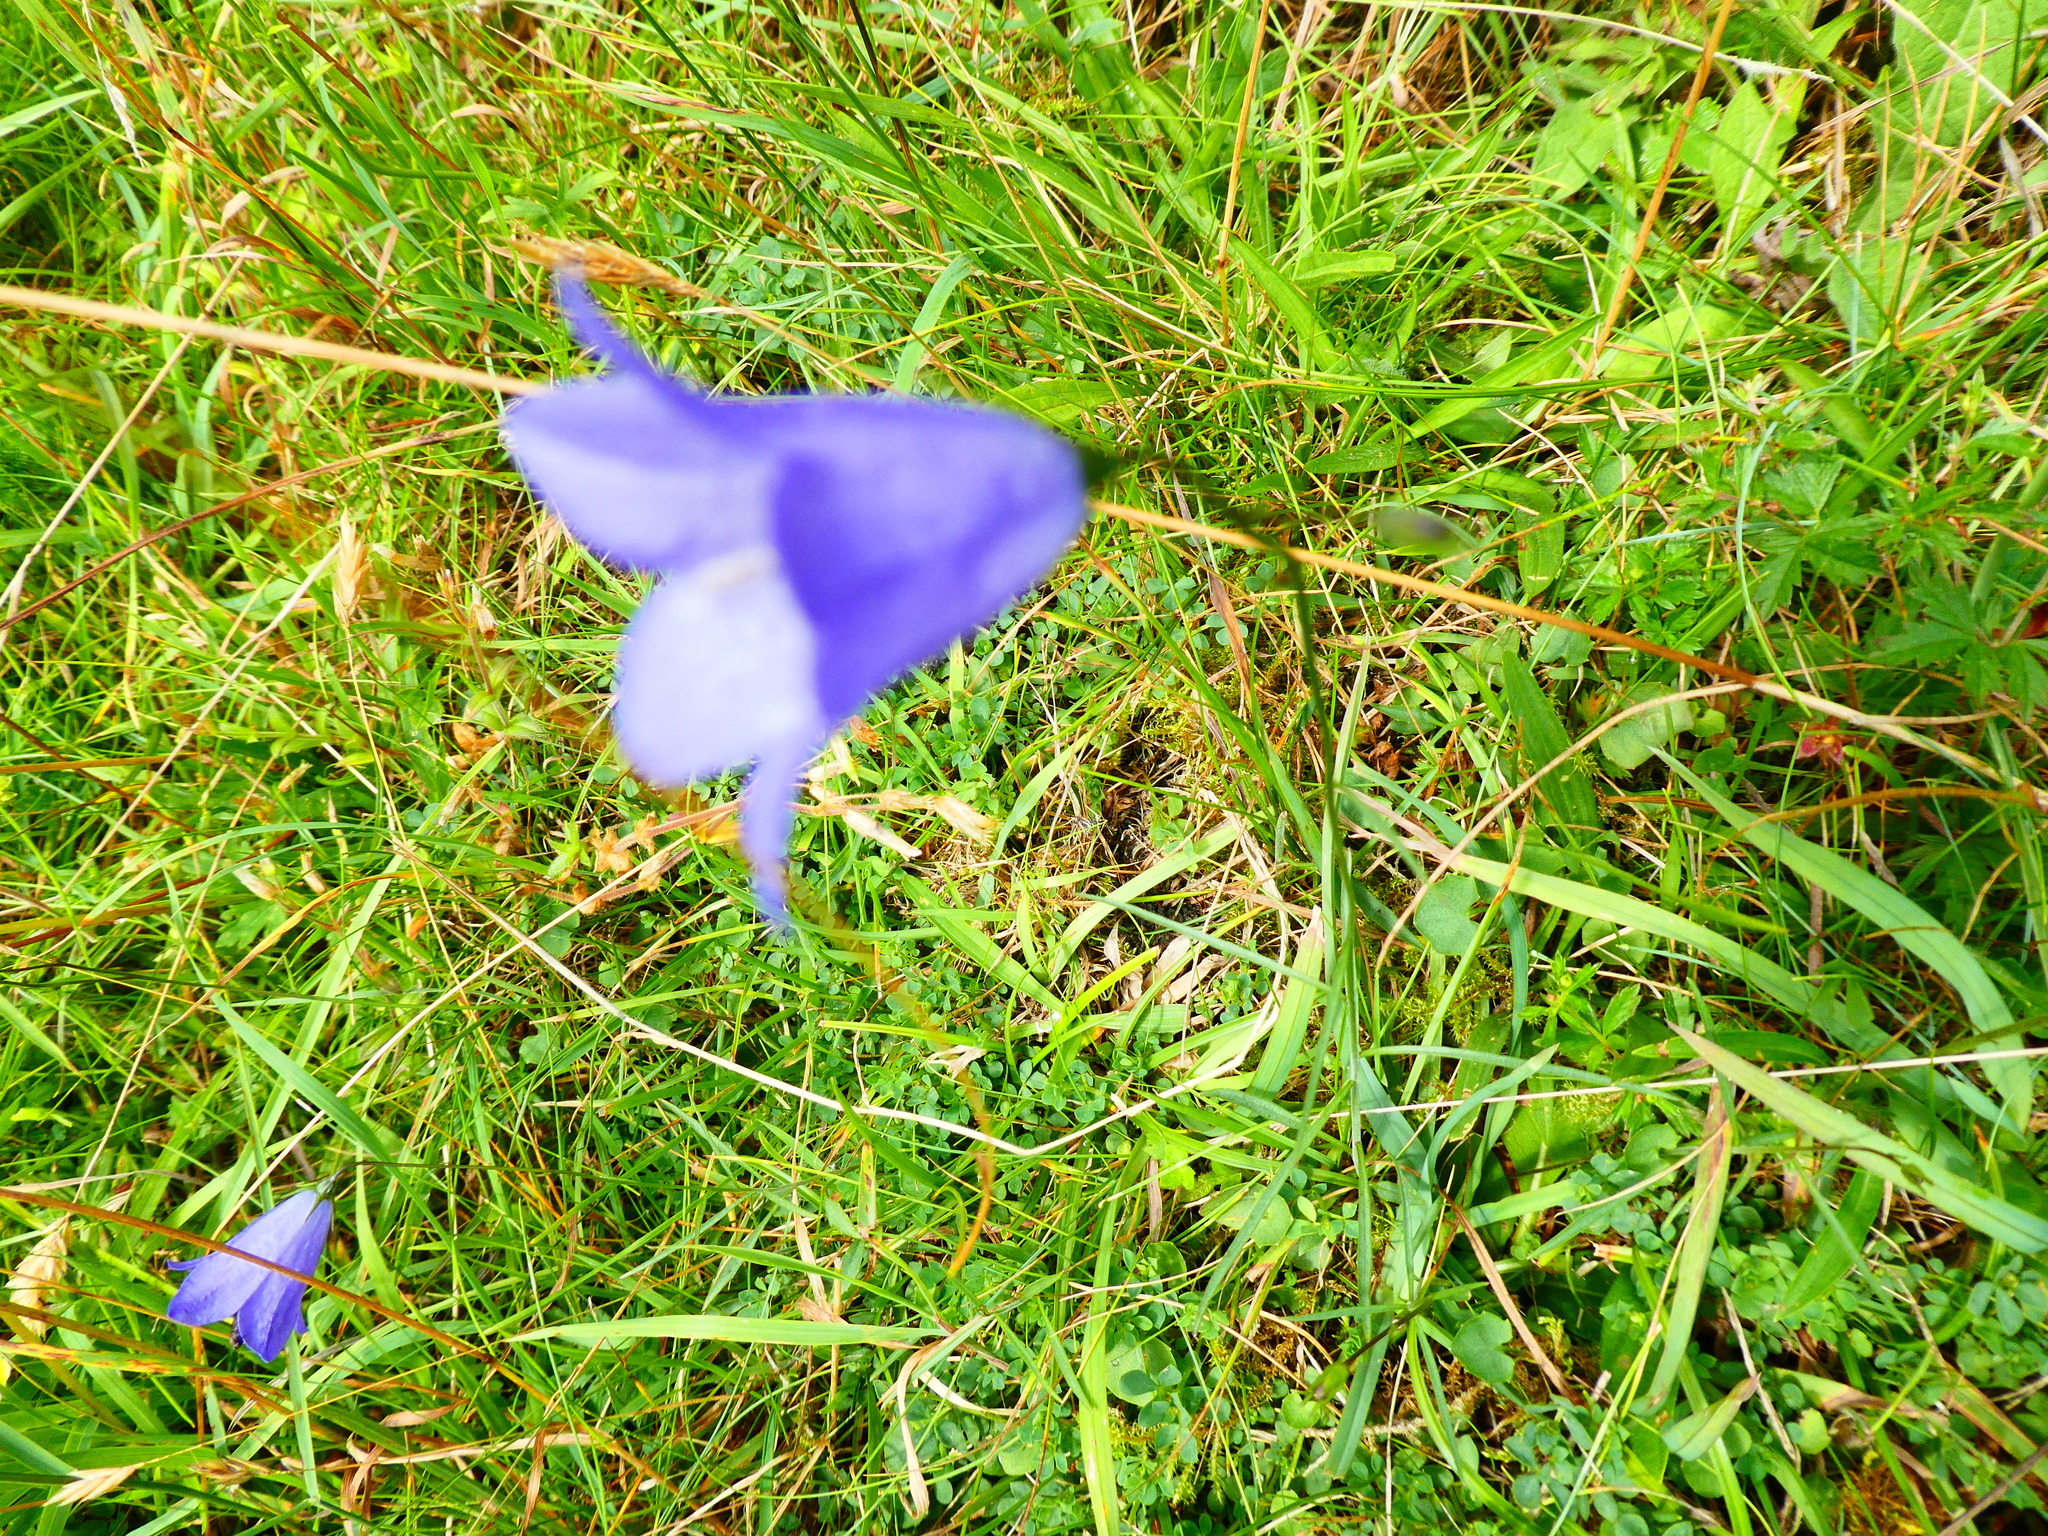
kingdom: Plantae
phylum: Tracheophyta
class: Magnoliopsida
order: Asterales
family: Campanulaceae
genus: Campanula
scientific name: Campanula rotundifolia
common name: Harebell
